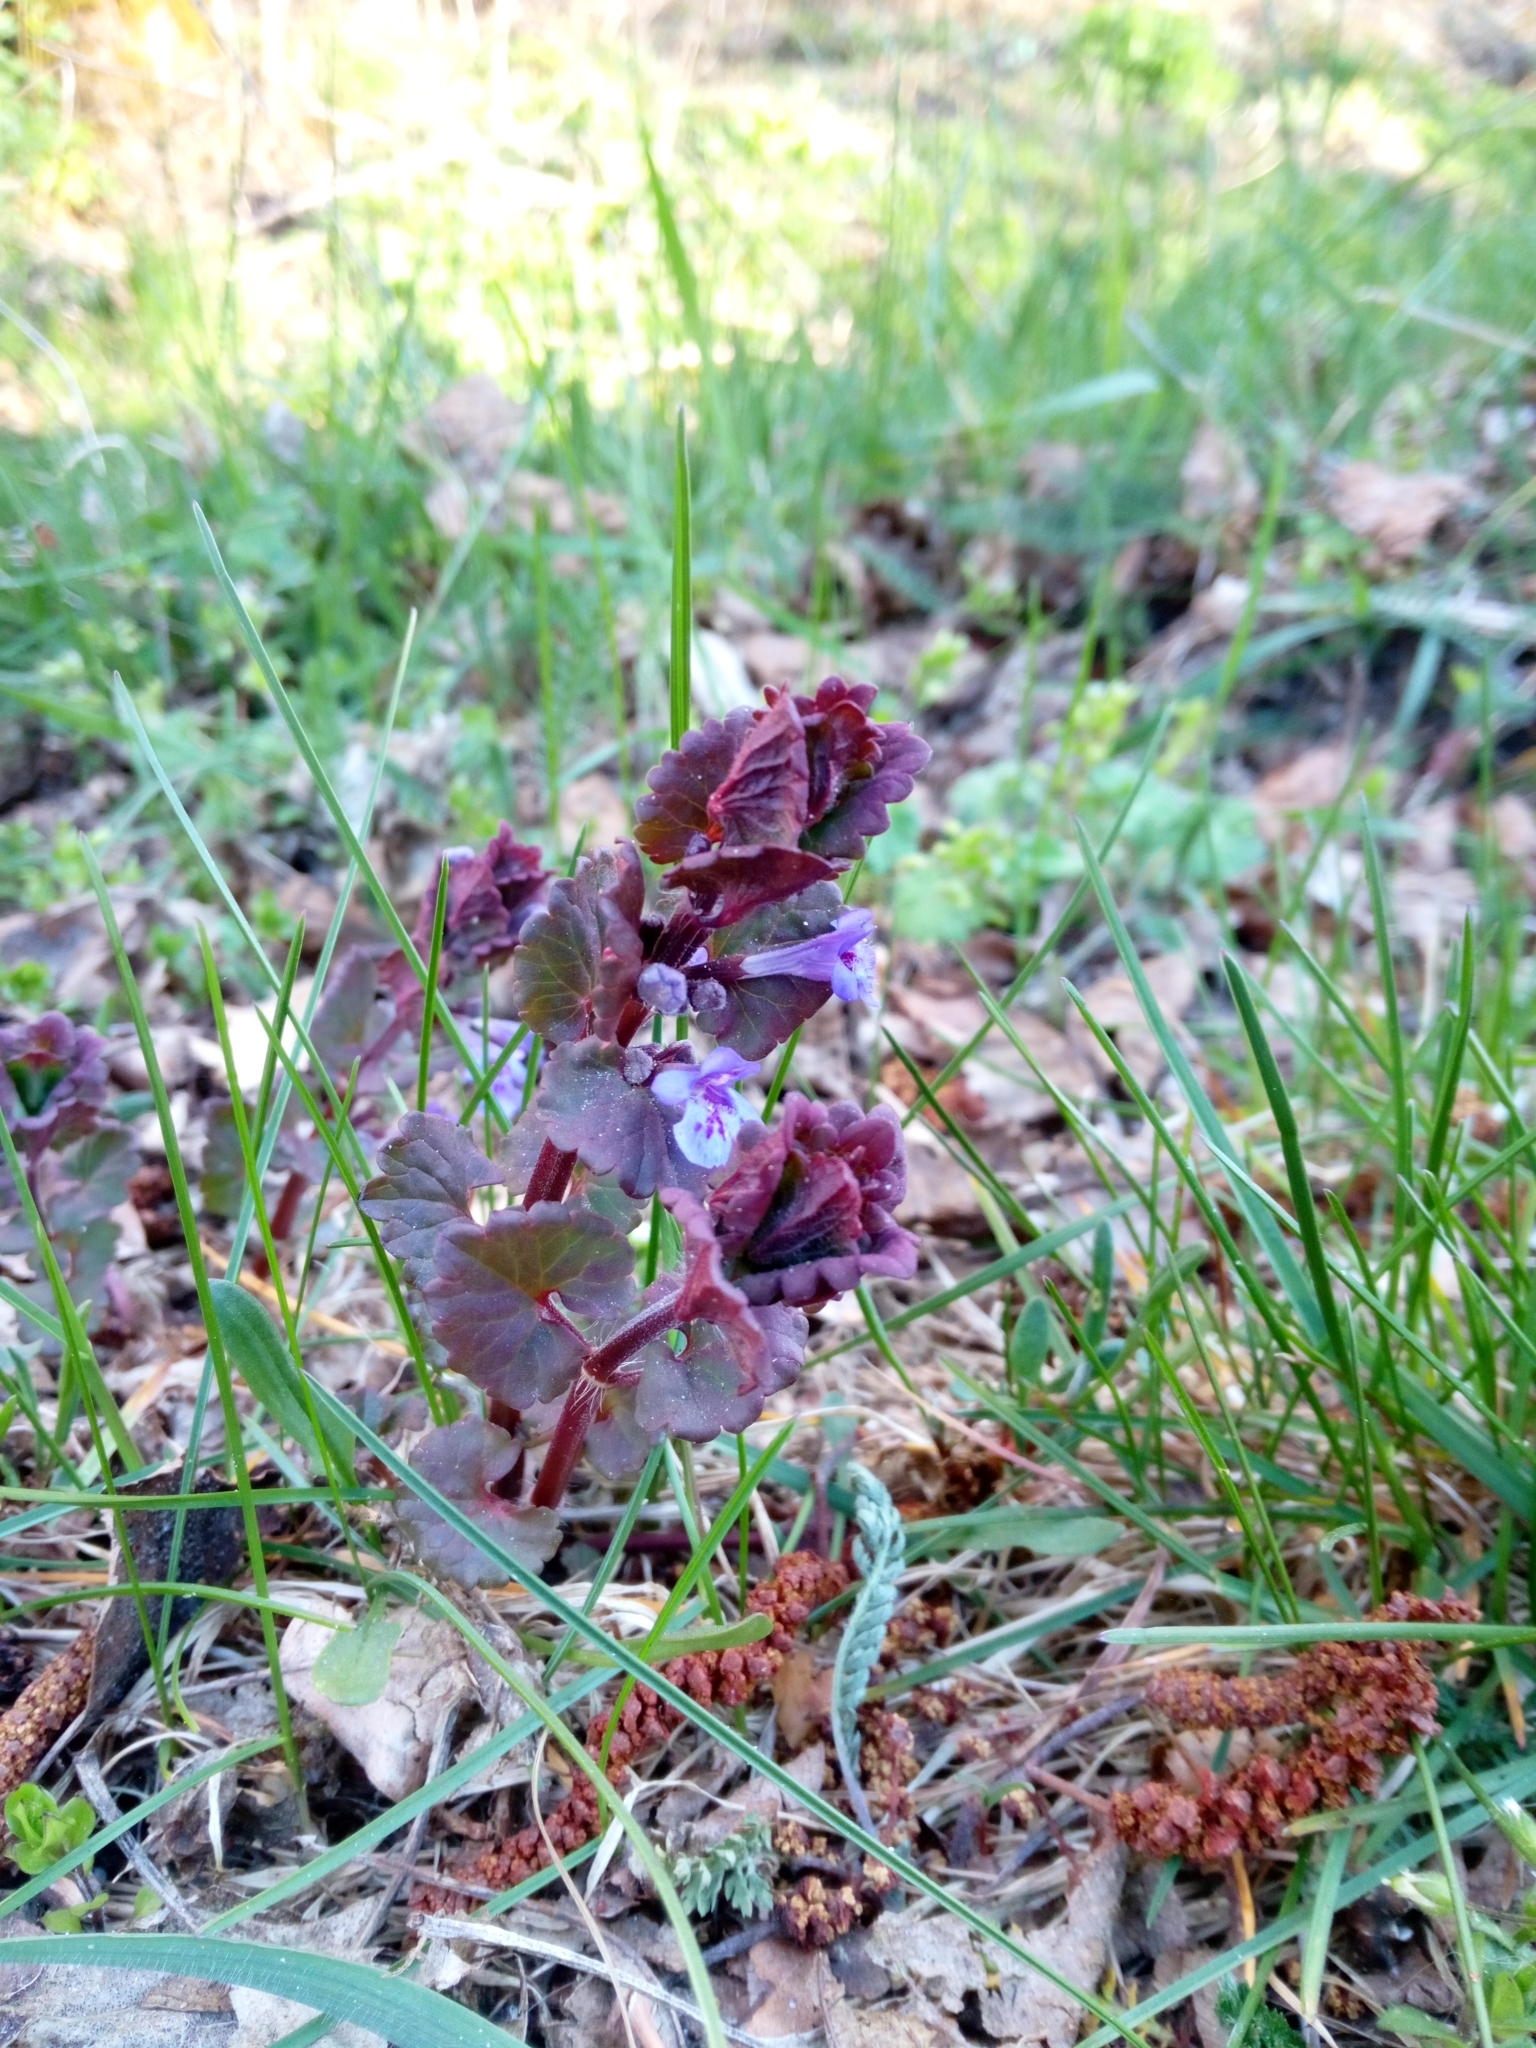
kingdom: Plantae
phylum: Tracheophyta
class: Magnoliopsida
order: Lamiales
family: Lamiaceae
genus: Glechoma
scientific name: Glechoma hederacea
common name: Ground ivy
